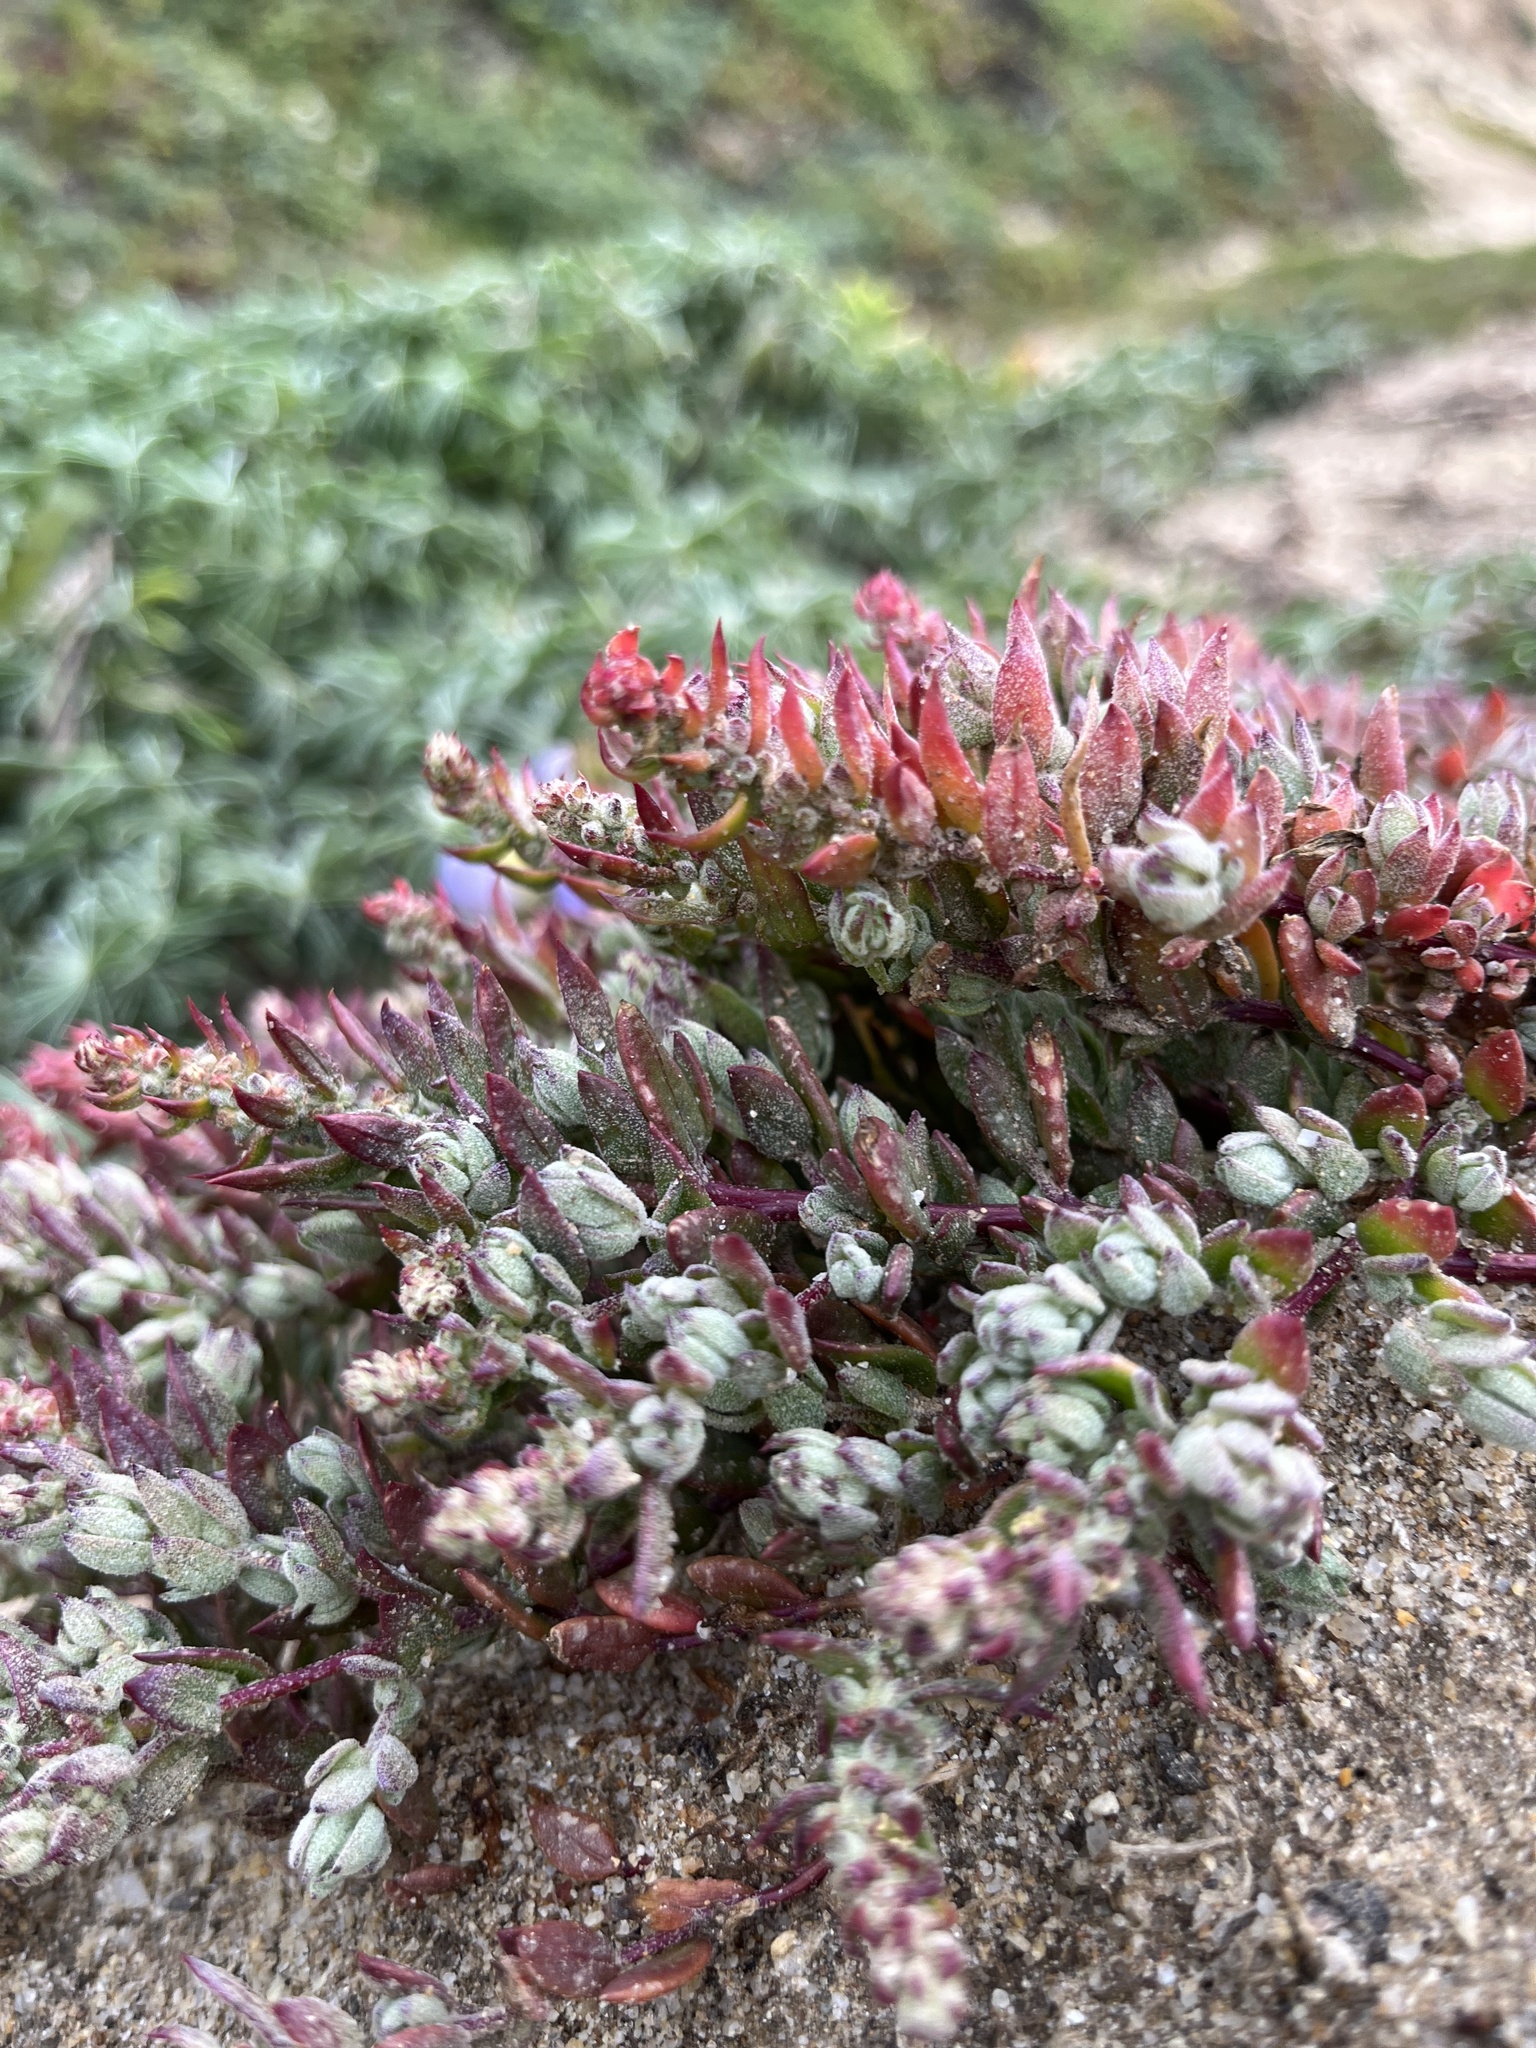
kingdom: Plantae
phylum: Tracheophyta
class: Magnoliopsida
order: Caryophyllales
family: Amaranthaceae
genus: Extriplex
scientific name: Extriplex californica
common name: California saltbush
